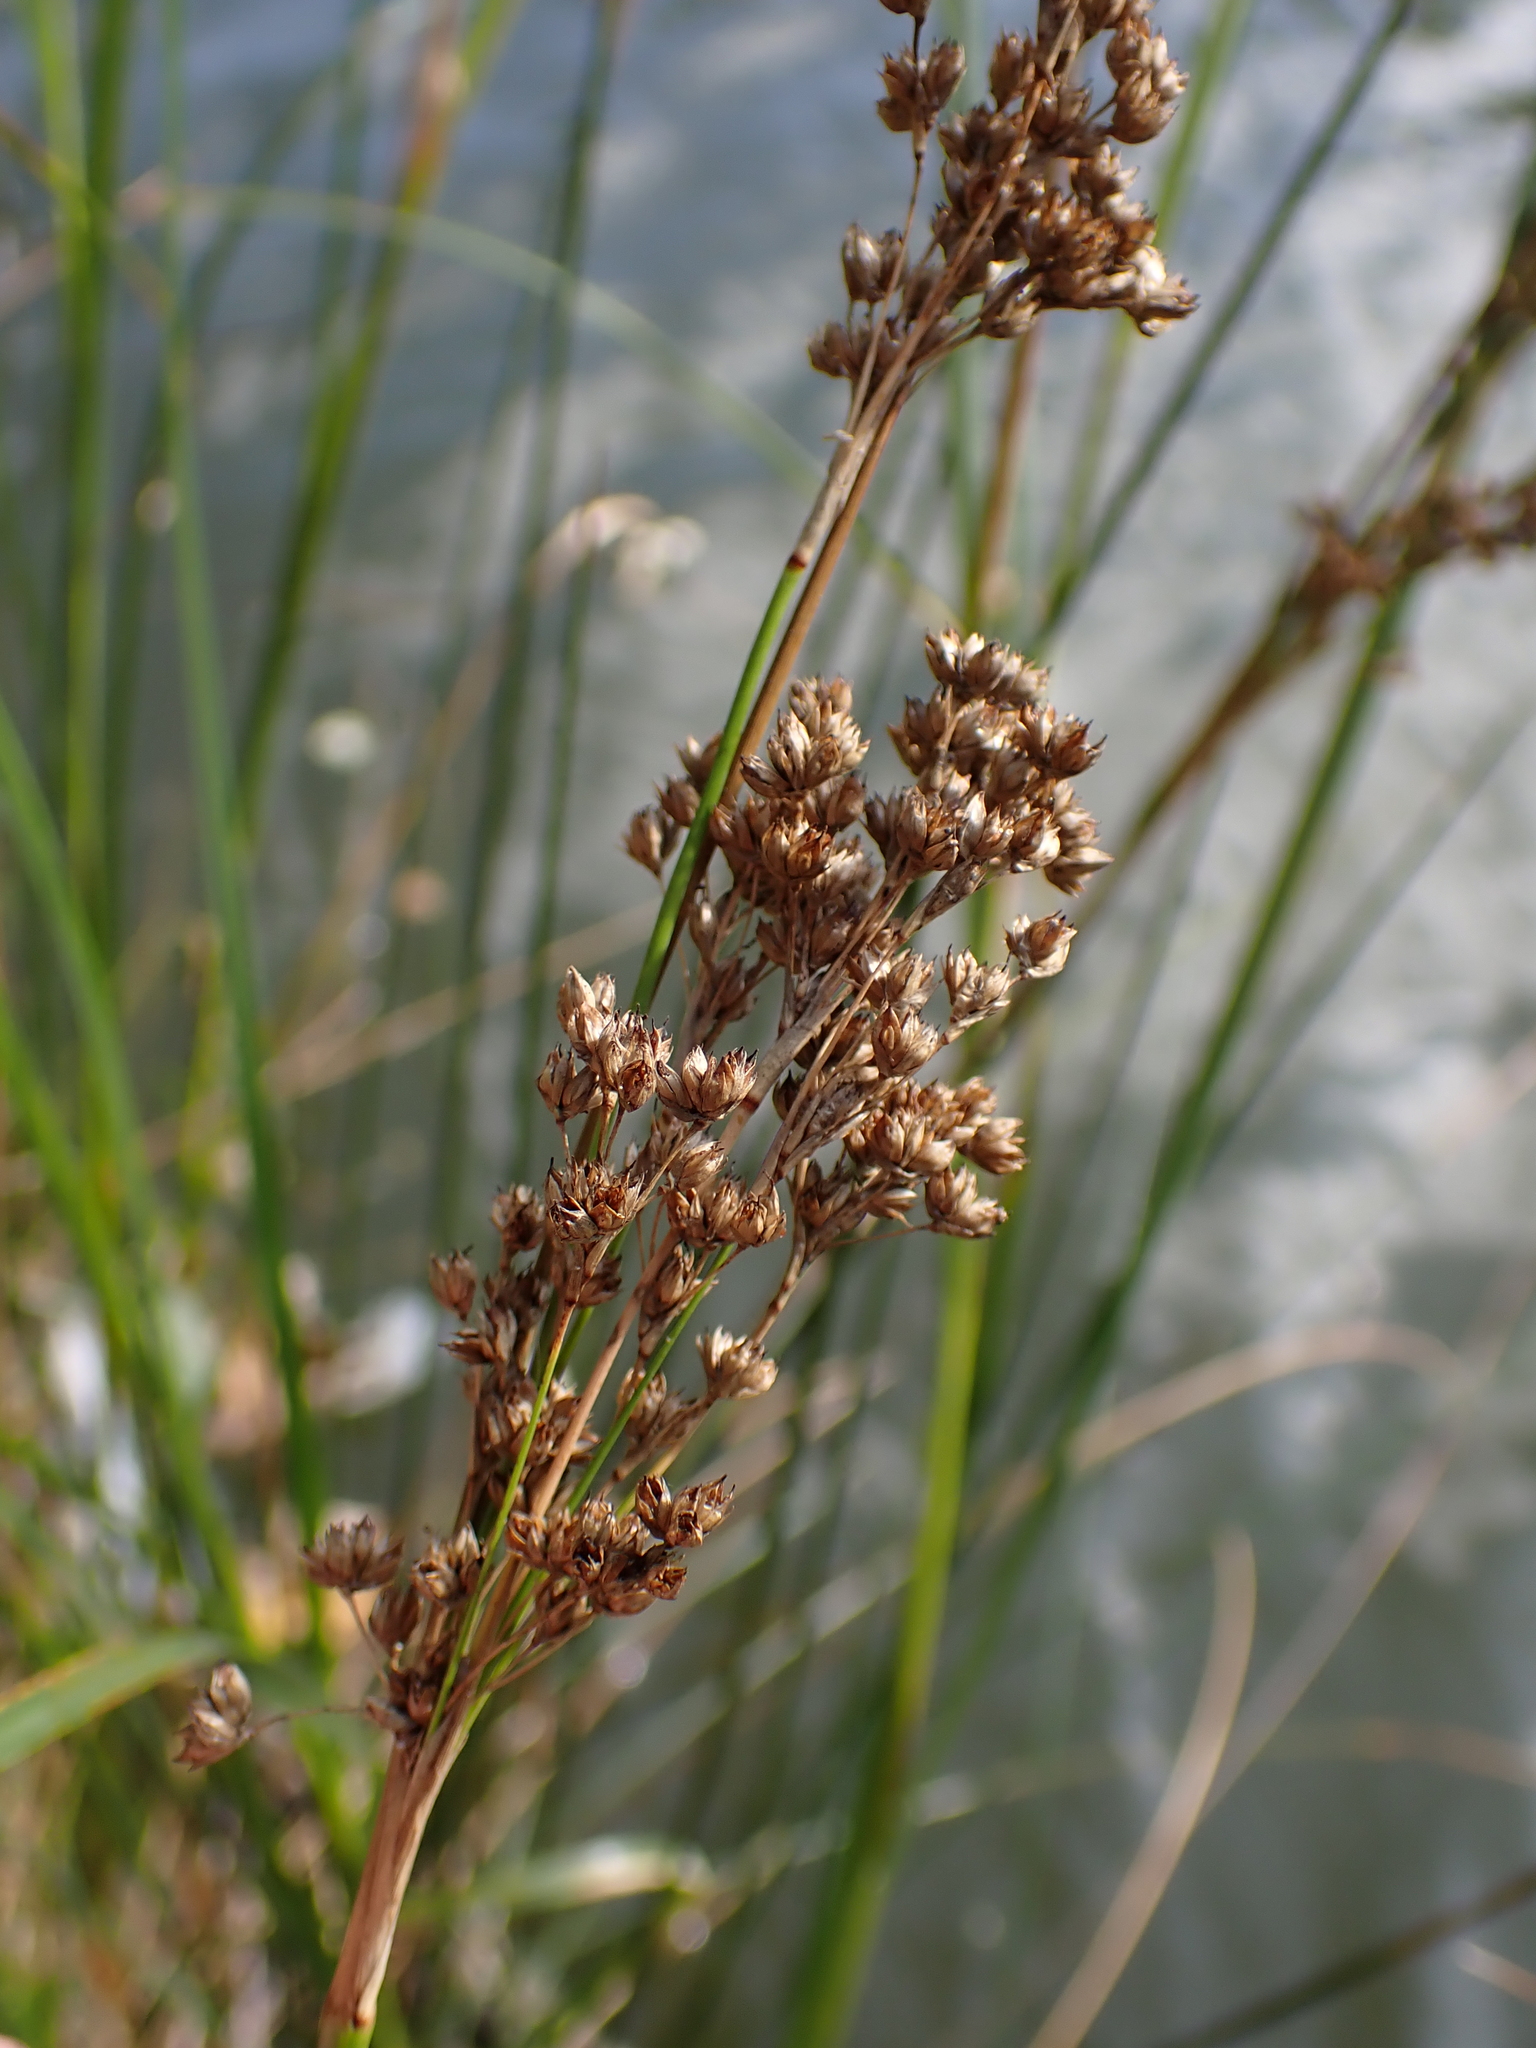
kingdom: Plantae
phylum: Tracheophyta
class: Liliopsida
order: Poales
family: Juncaceae
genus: Juncus
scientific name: Juncus maritimus
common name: Sea rush
